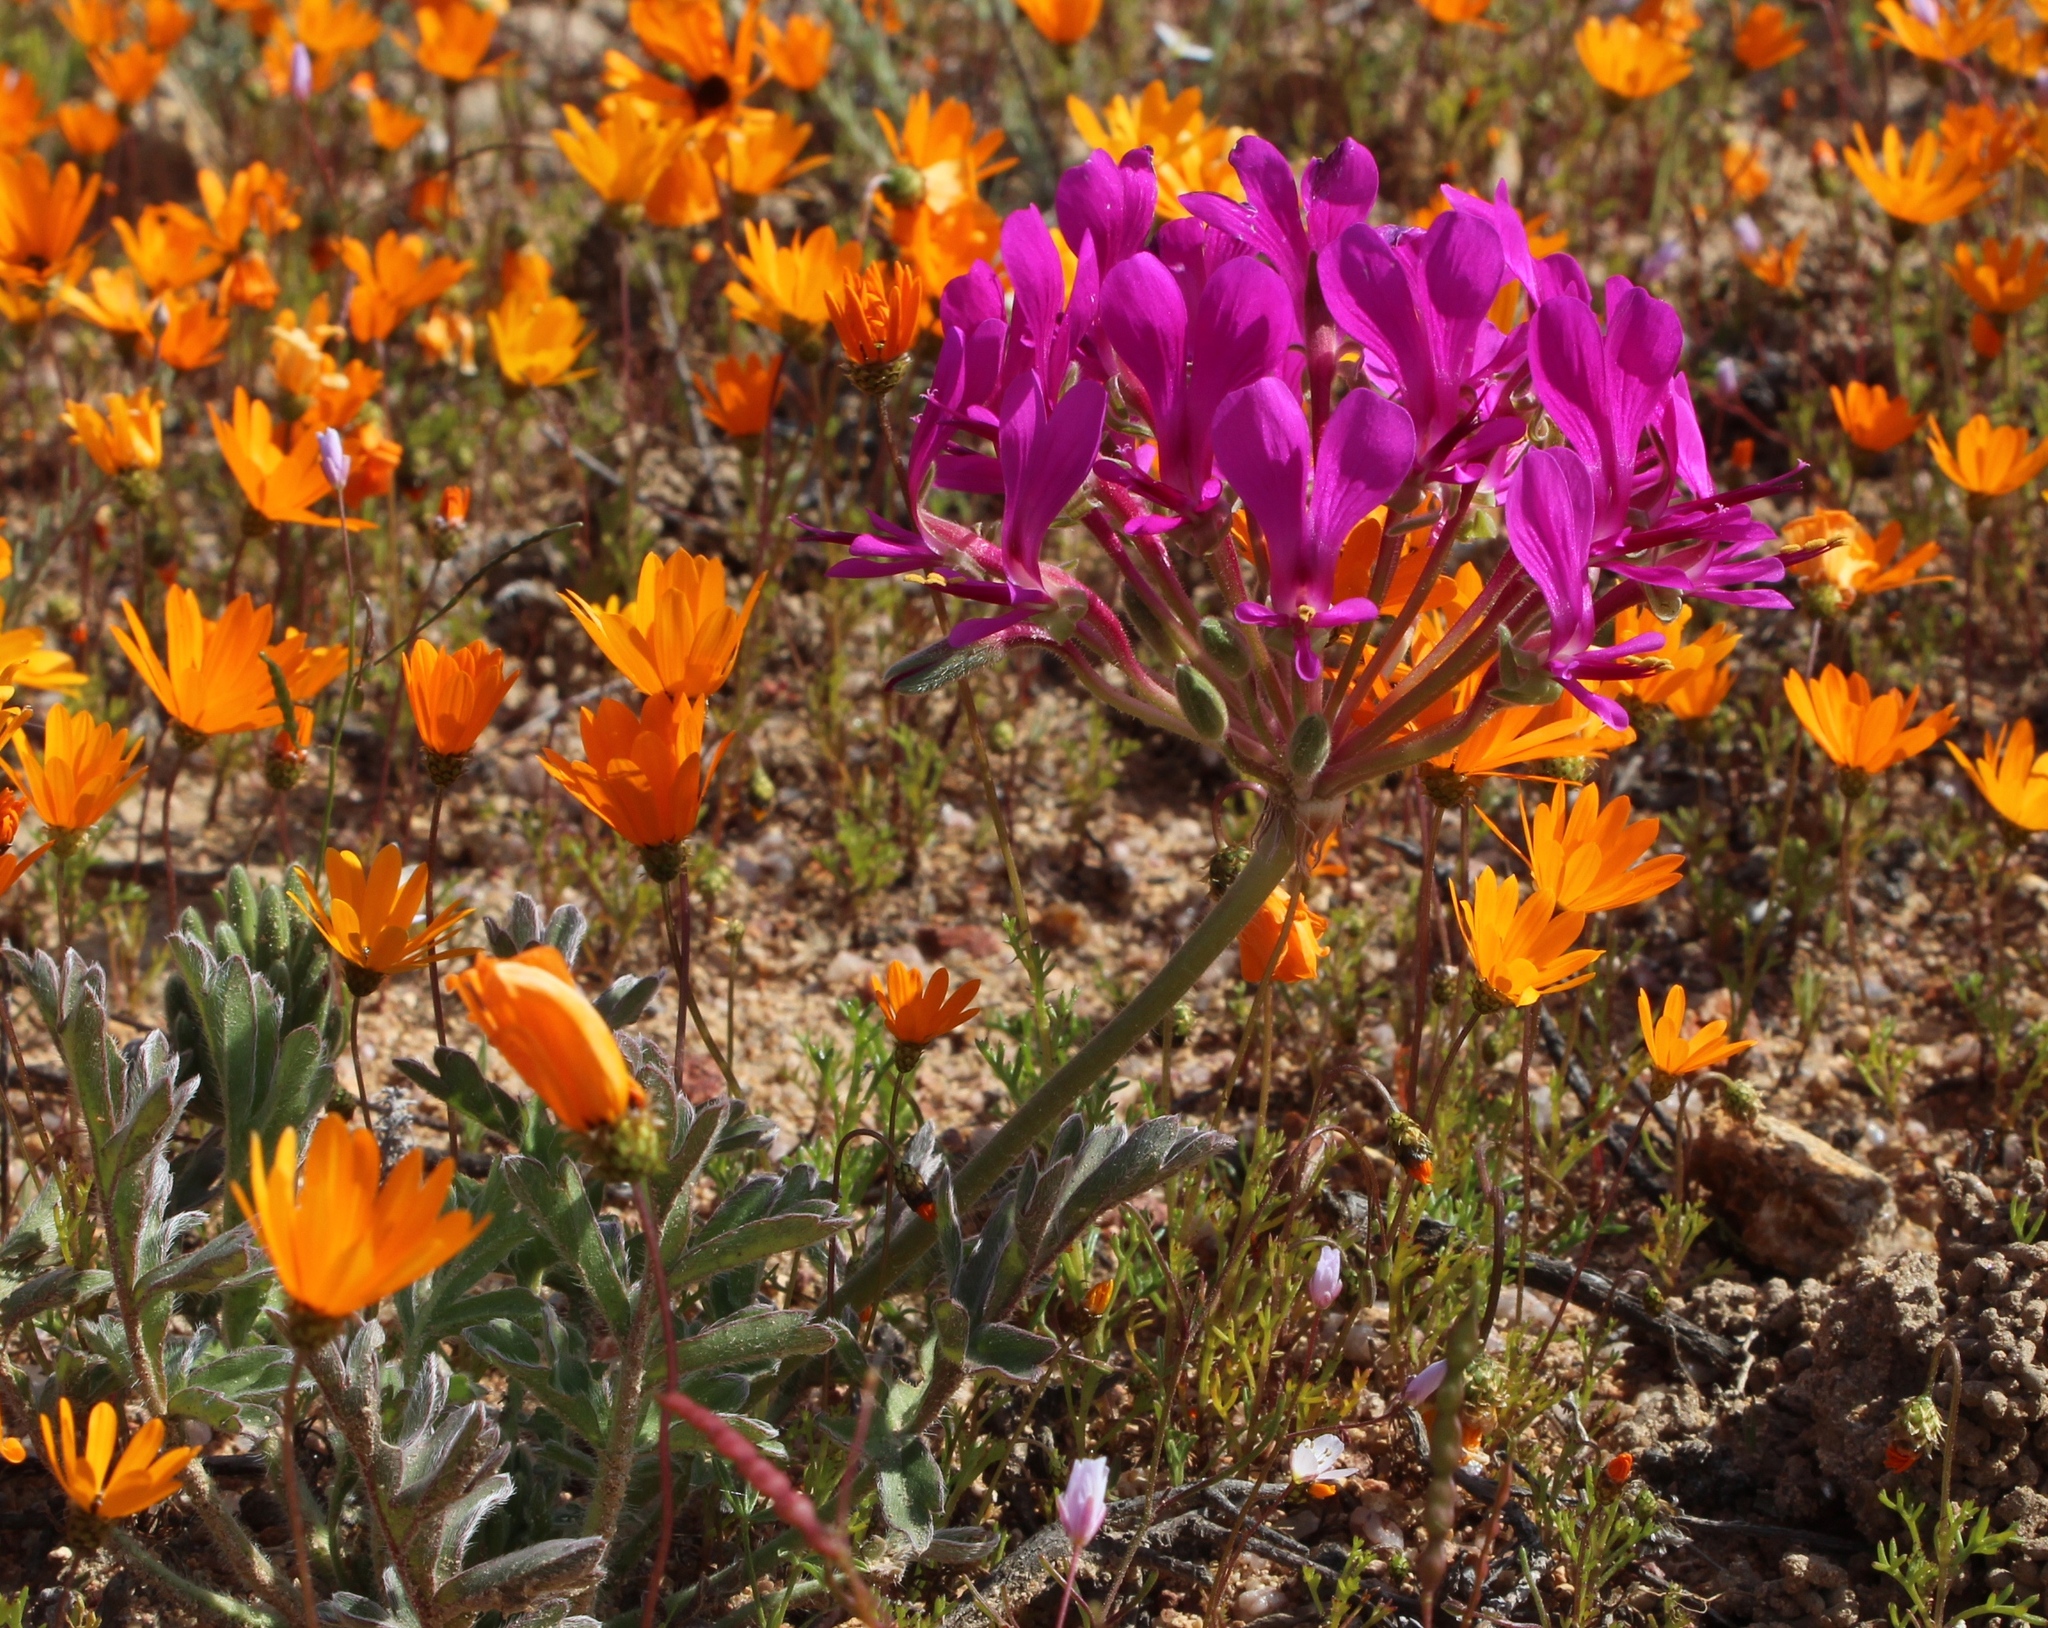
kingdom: Plantae
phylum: Tracheophyta
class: Magnoliopsida
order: Geraniales
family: Geraniaceae
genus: Pelargonium
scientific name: Pelargonium incrassatum
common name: Namaqualand beauty
